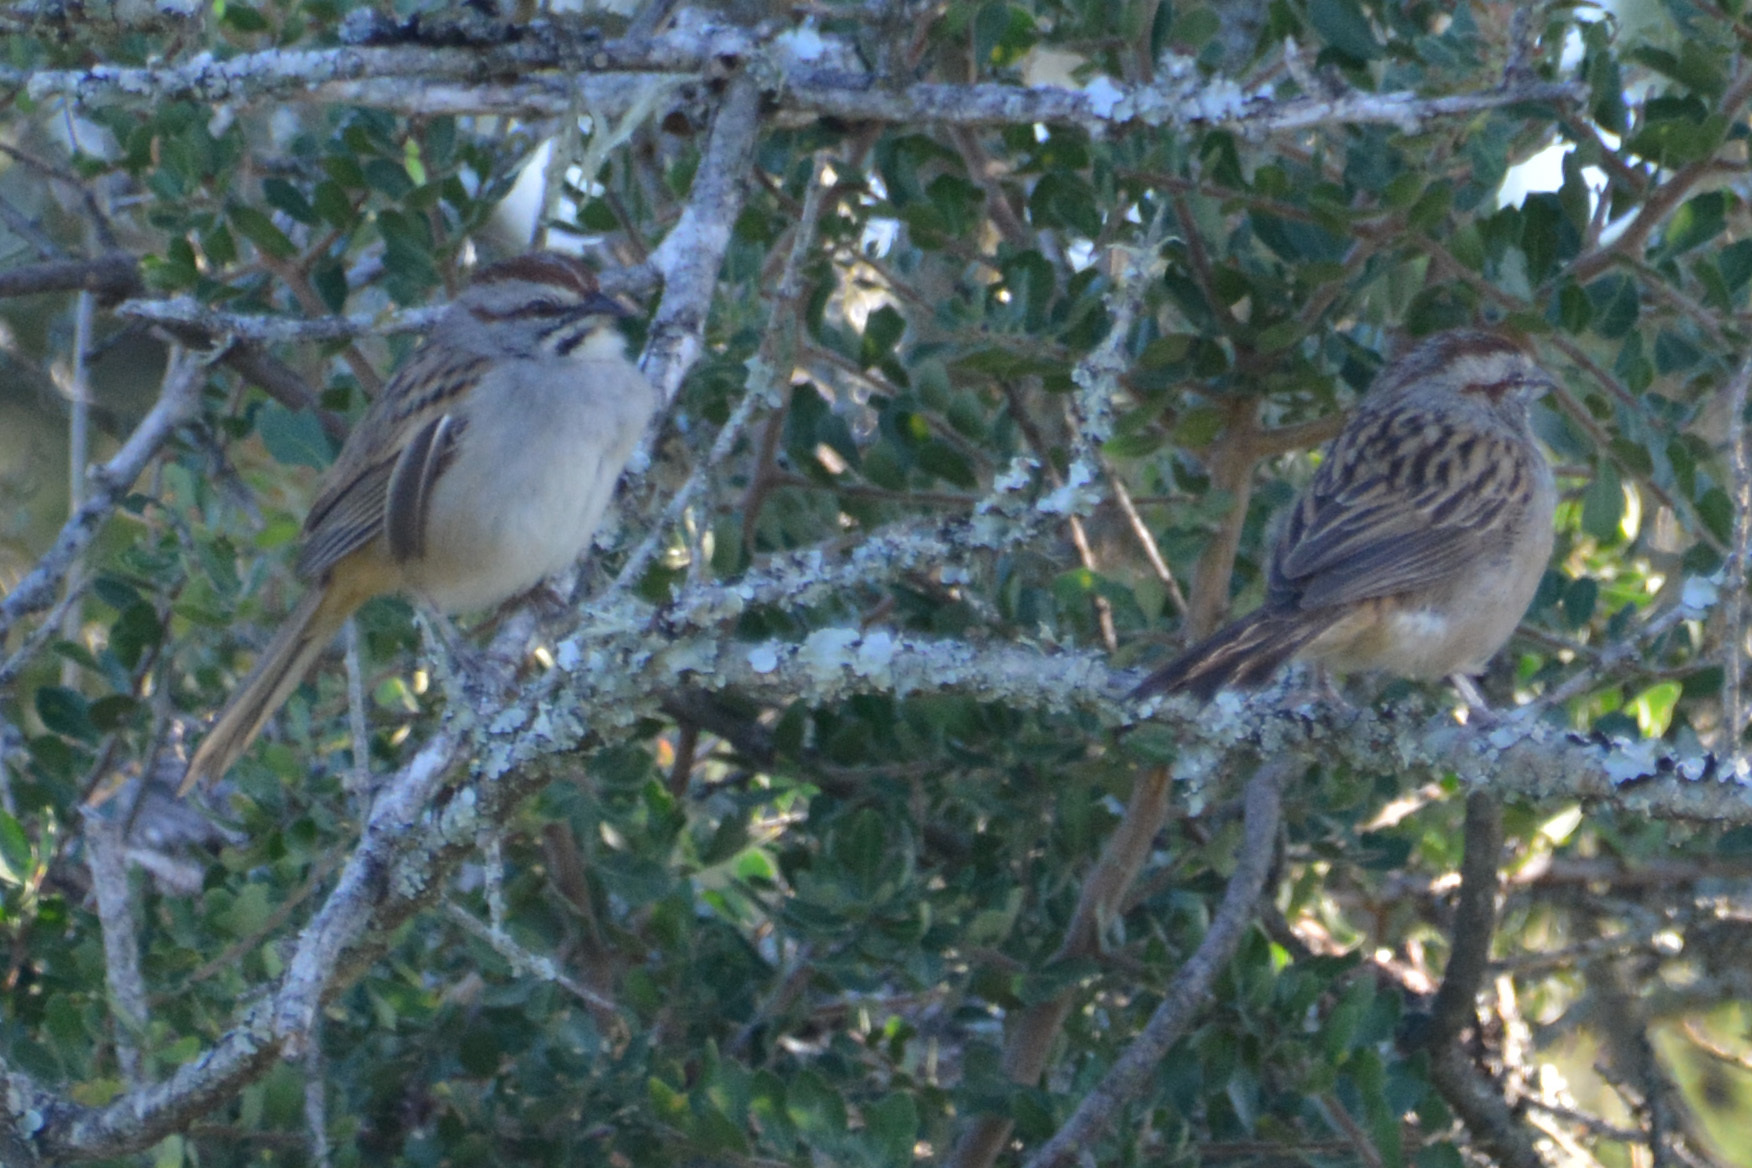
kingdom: Animalia
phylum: Chordata
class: Aves
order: Passeriformes
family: Passerellidae
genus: Rhynchospiza
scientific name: Rhynchospiza strigiceps
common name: Stripe-capped sparrow
